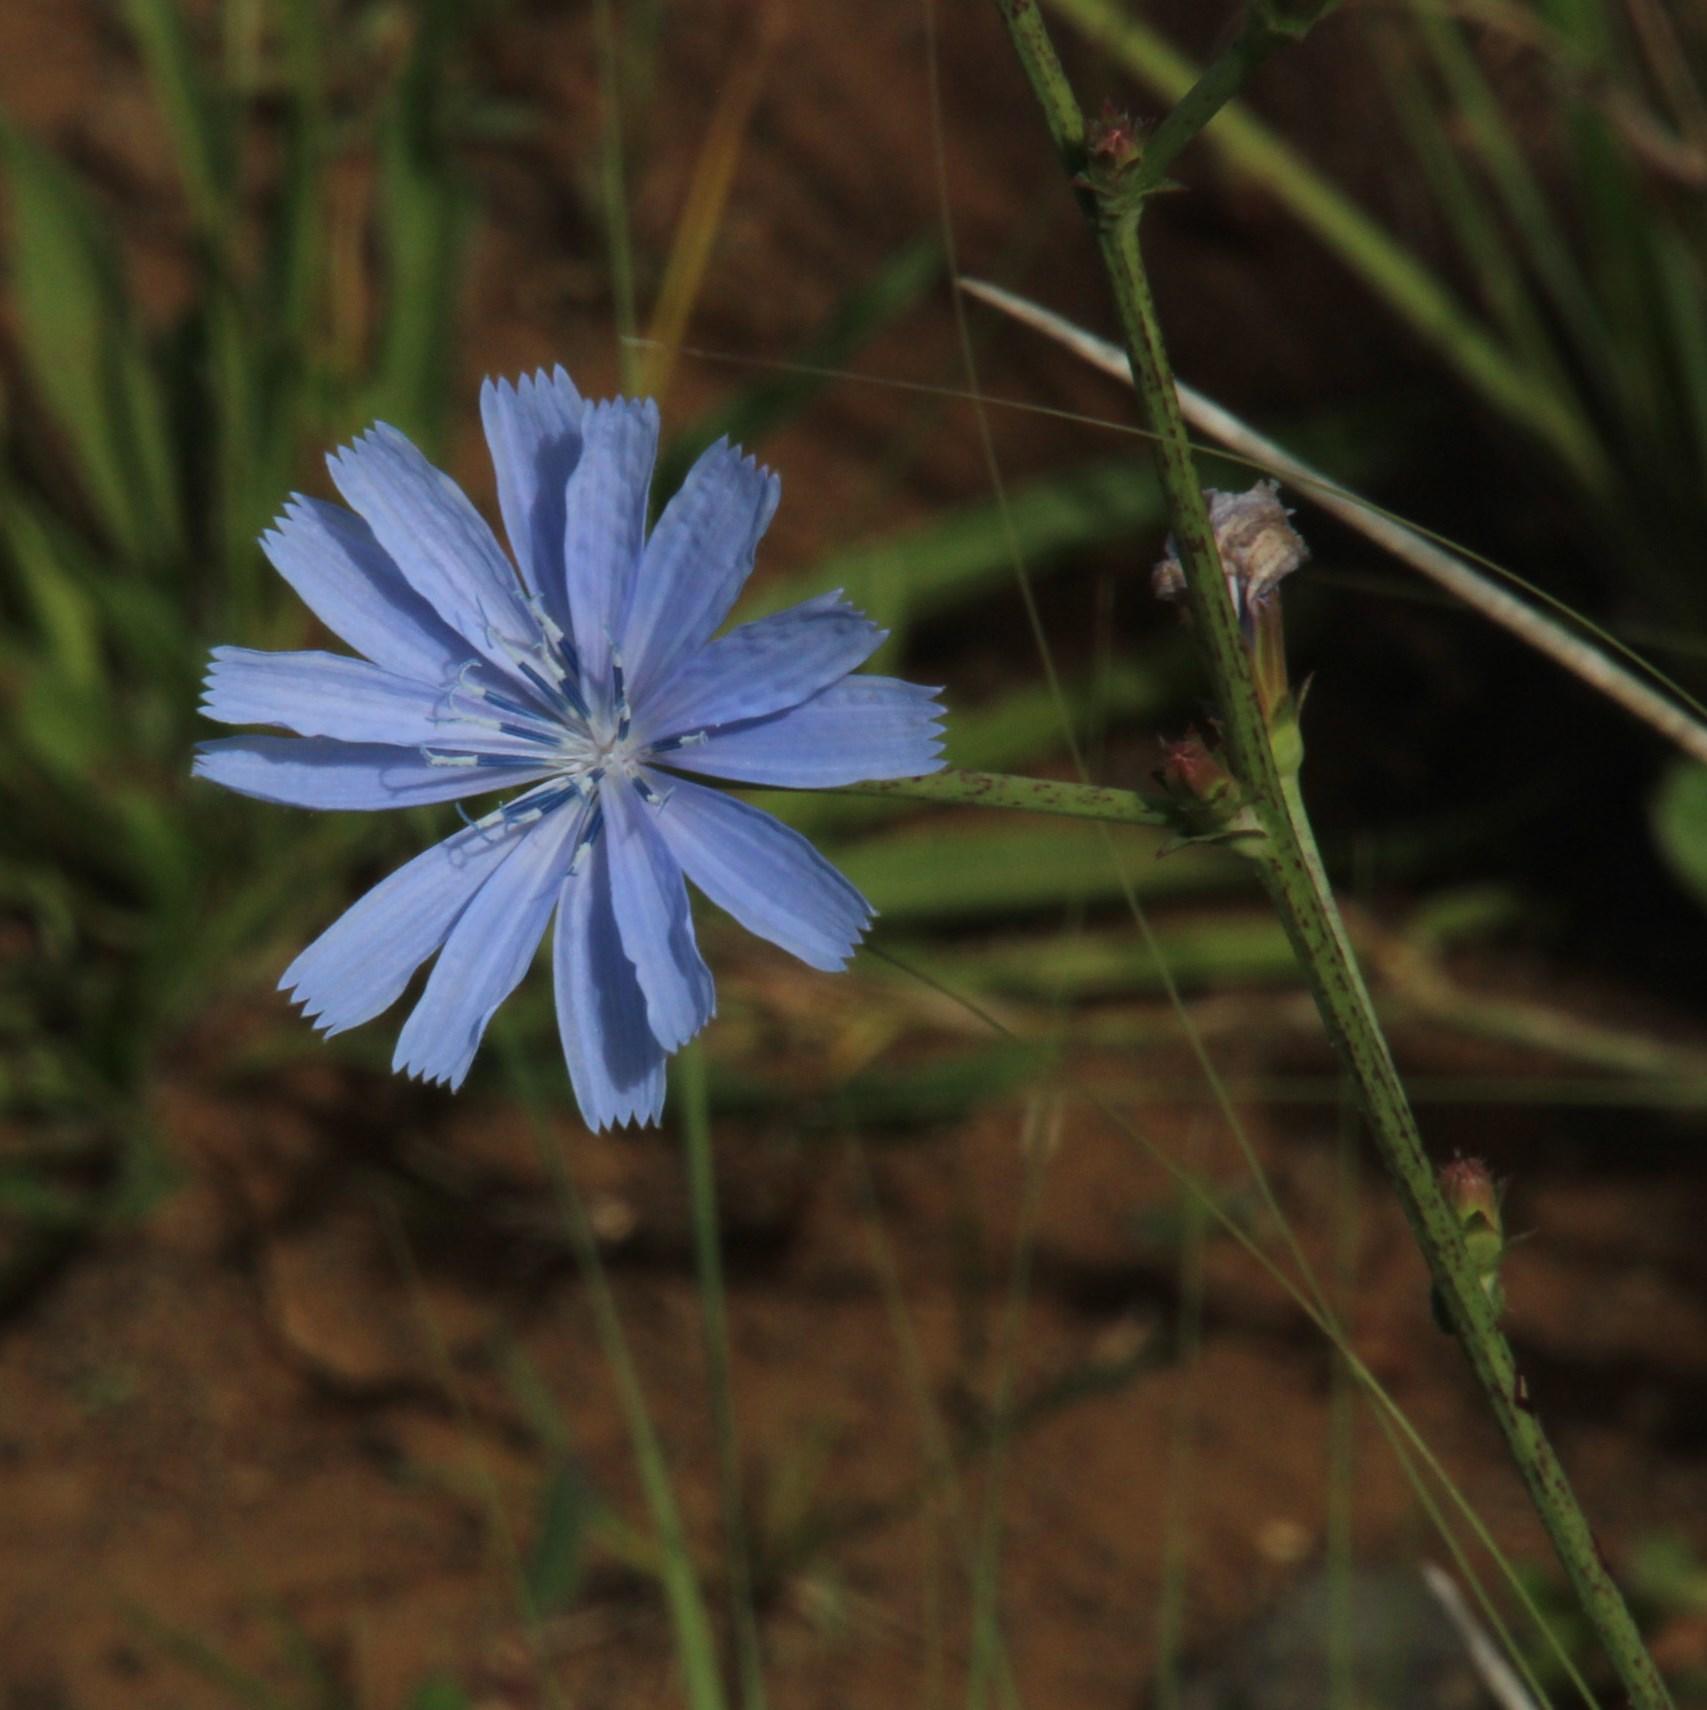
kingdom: Plantae
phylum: Tracheophyta
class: Magnoliopsida
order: Asterales
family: Asteraceae
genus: Cichorium
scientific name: Cichorium intybus
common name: Chicory
